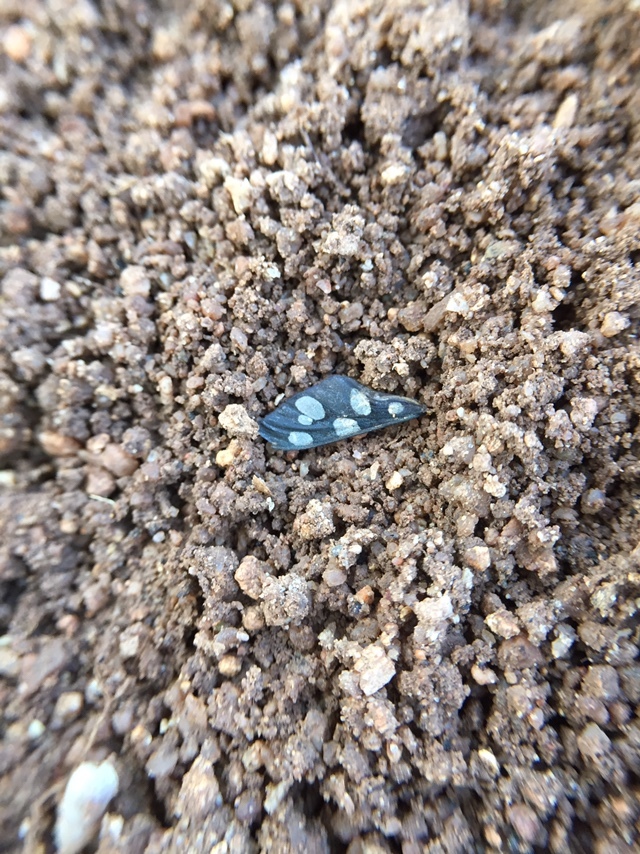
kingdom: Animalia
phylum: Arthropoda
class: Insecta
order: Lepidoptera
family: Erebidae
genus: Amata
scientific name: Amata passalis
